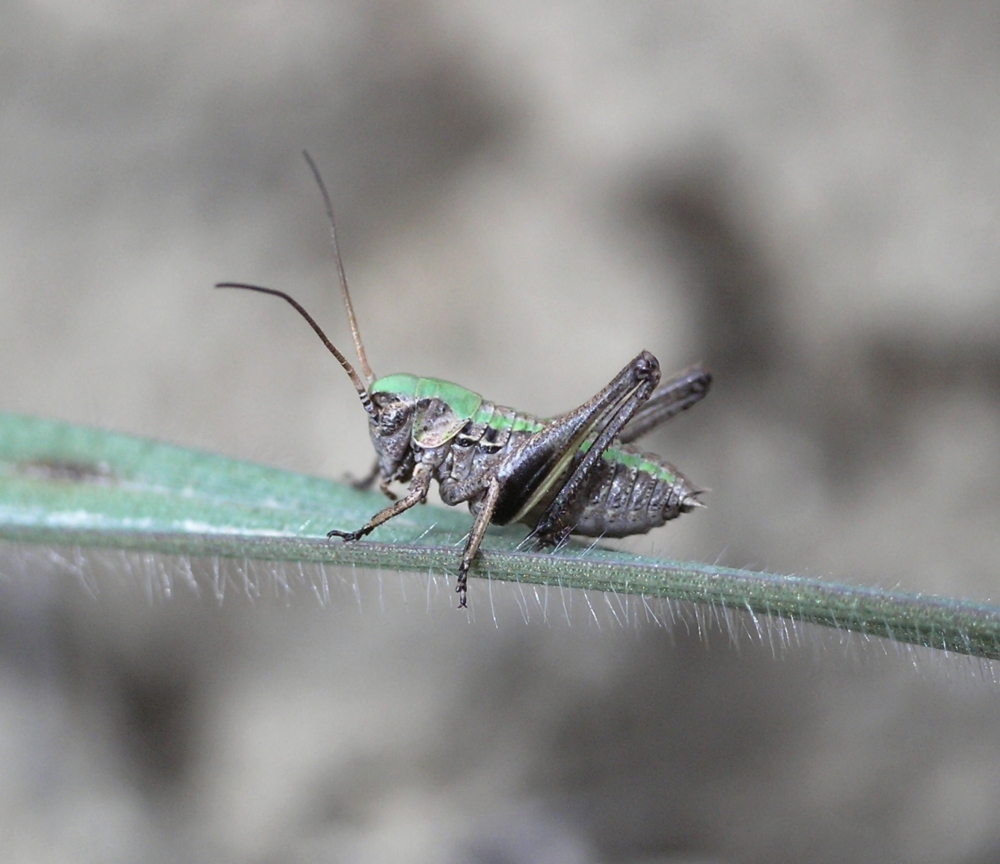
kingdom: Animalia
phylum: Arthropoda
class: Insecta
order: Orthoptera
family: Tettigoniidae
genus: Decticus
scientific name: Decticus verrucivorus
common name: Wart-biter
